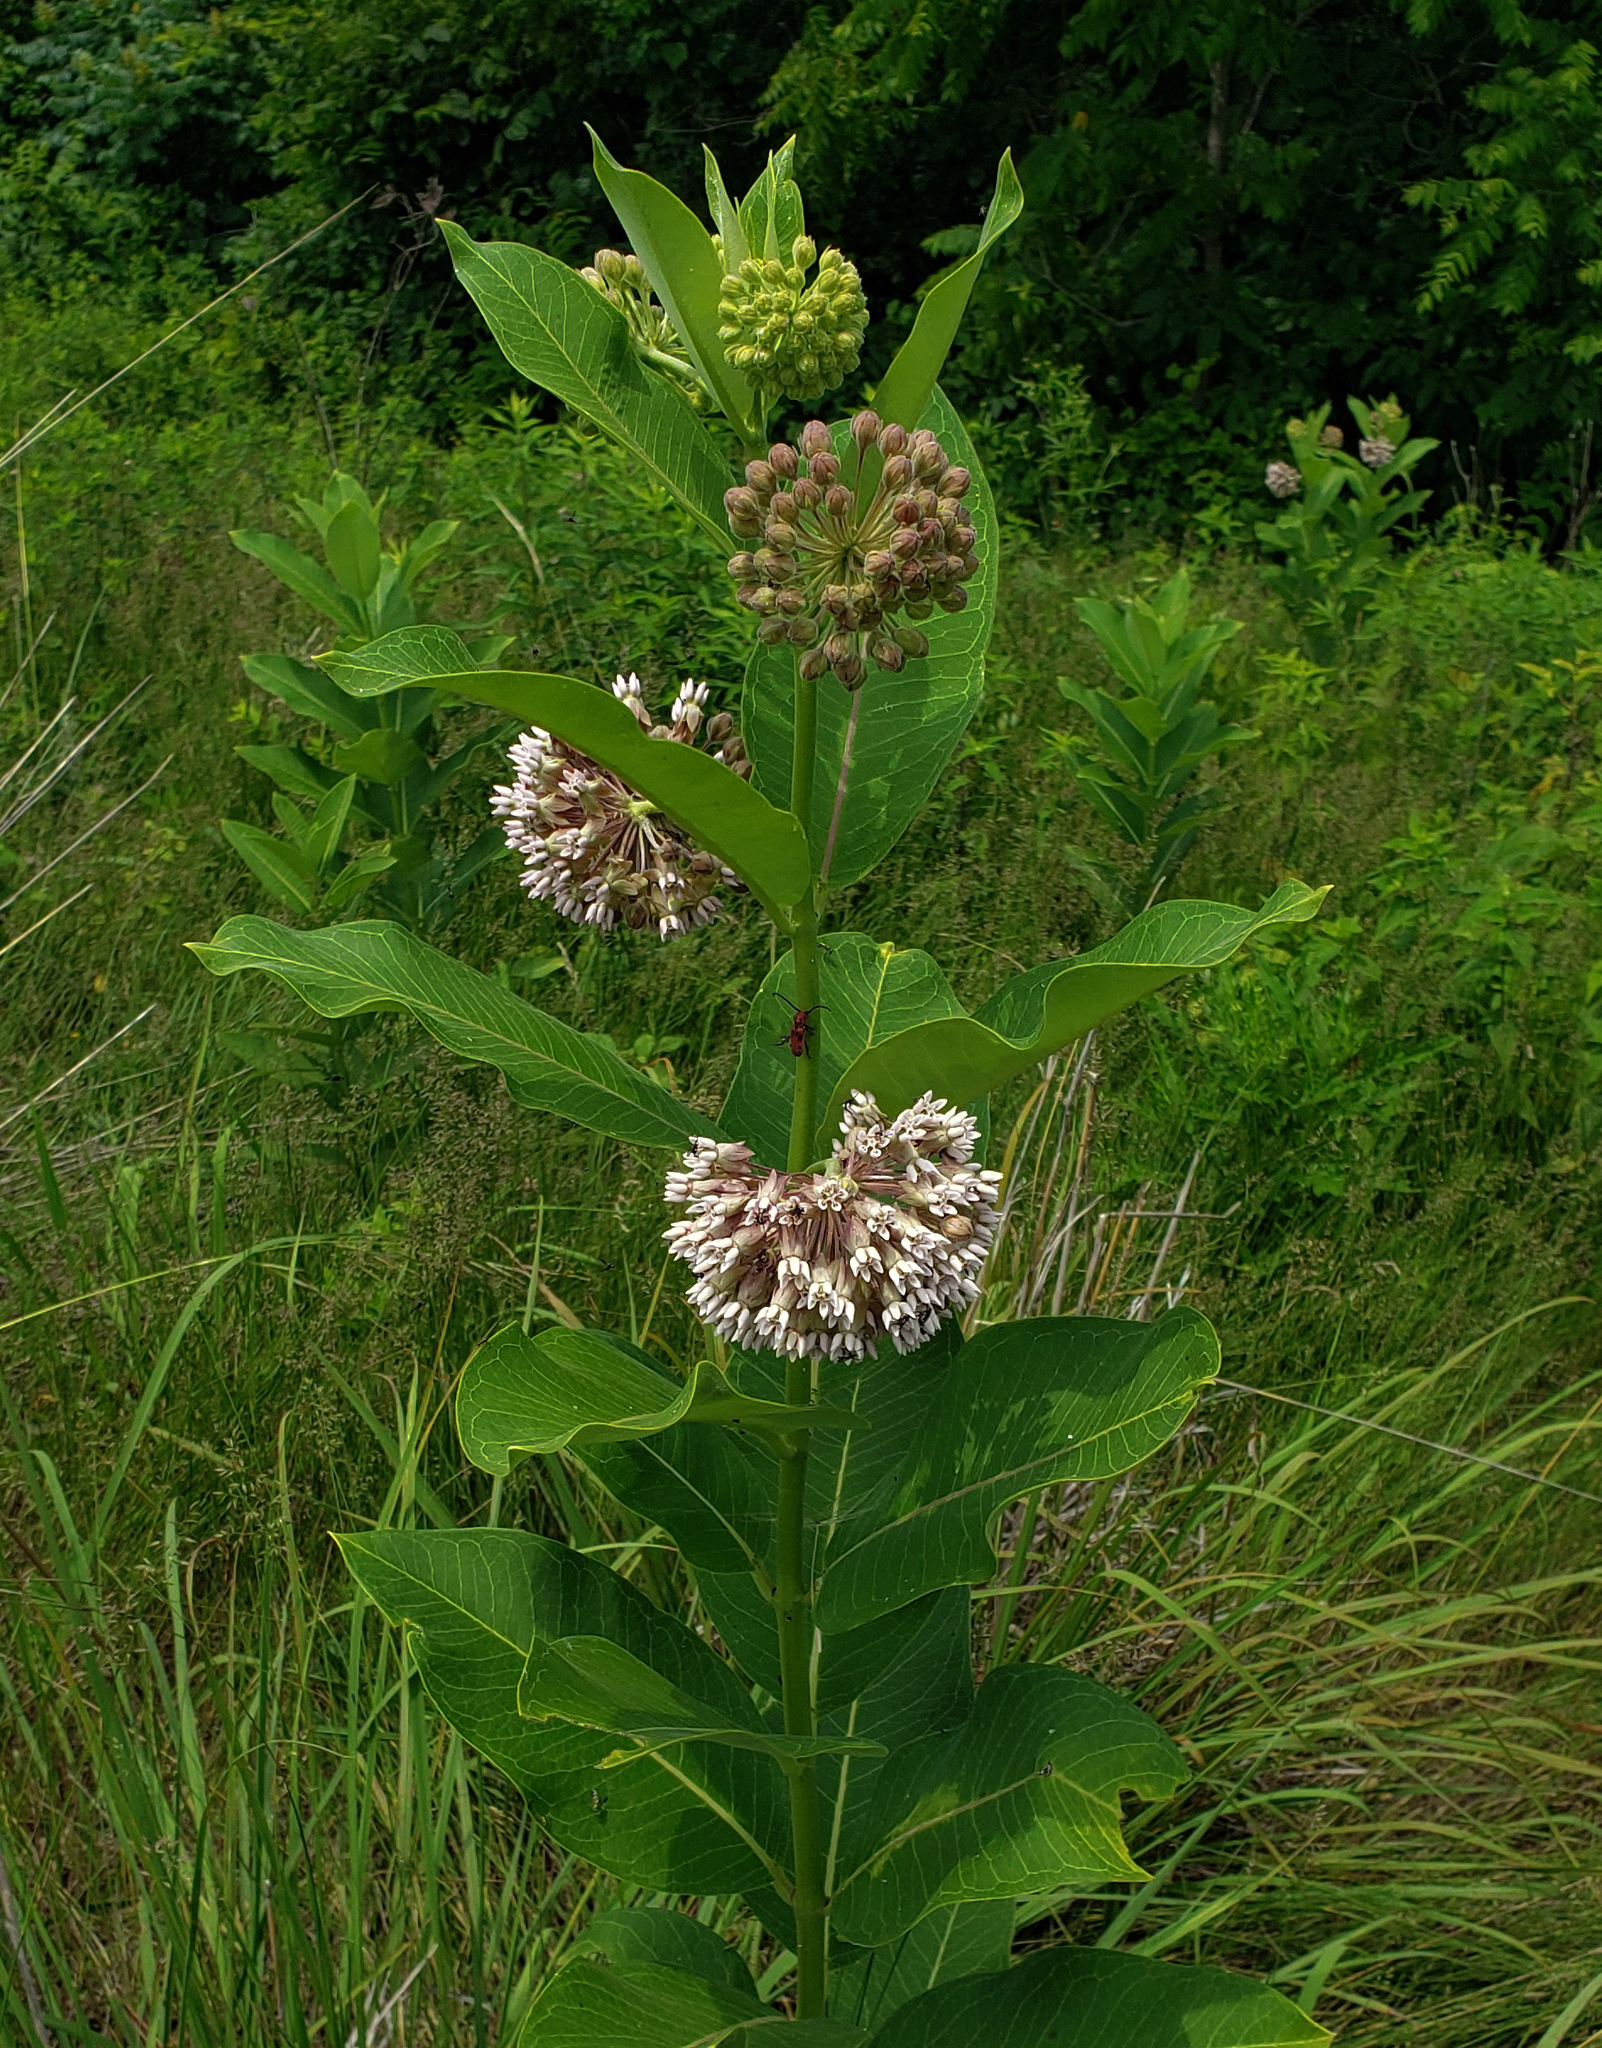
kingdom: Plantae
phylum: Tracheophyta
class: Magnoliopsida
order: Gentianales
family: Apocynaceae
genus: Asclepias
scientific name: Asclepias syriaca
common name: Common milkweed
